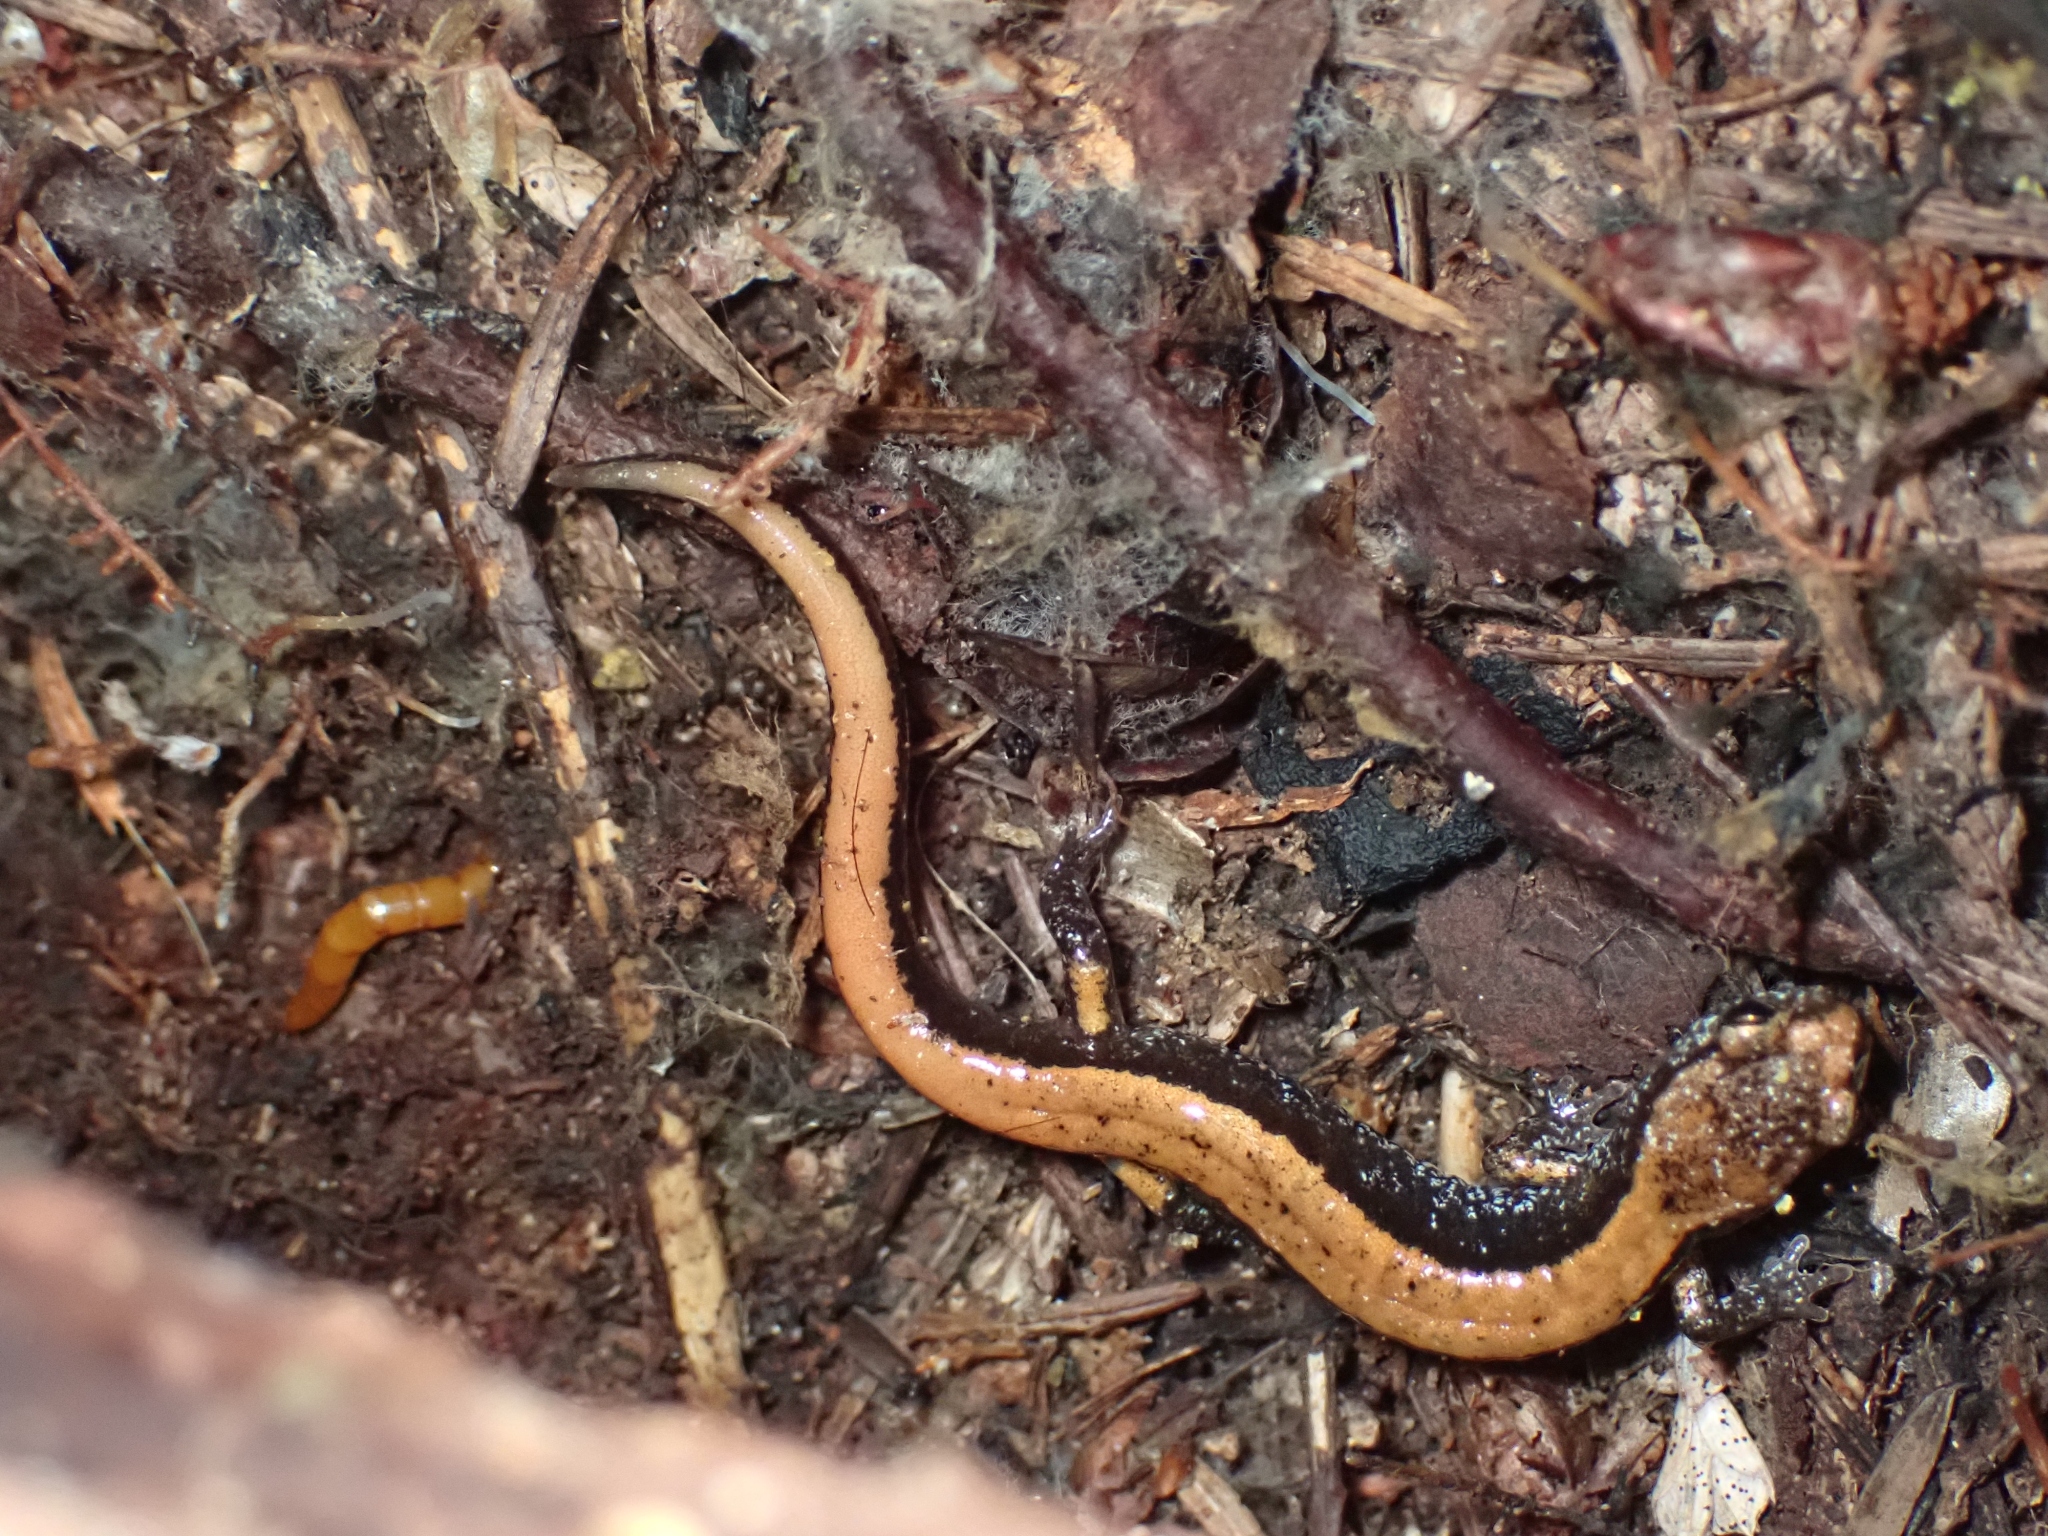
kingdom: Animalia
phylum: Chordata
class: Amphibia
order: Caudata
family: Plethodontidae
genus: Plethodon
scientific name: Plethodon vehiculum
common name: Western red-backed salamander
